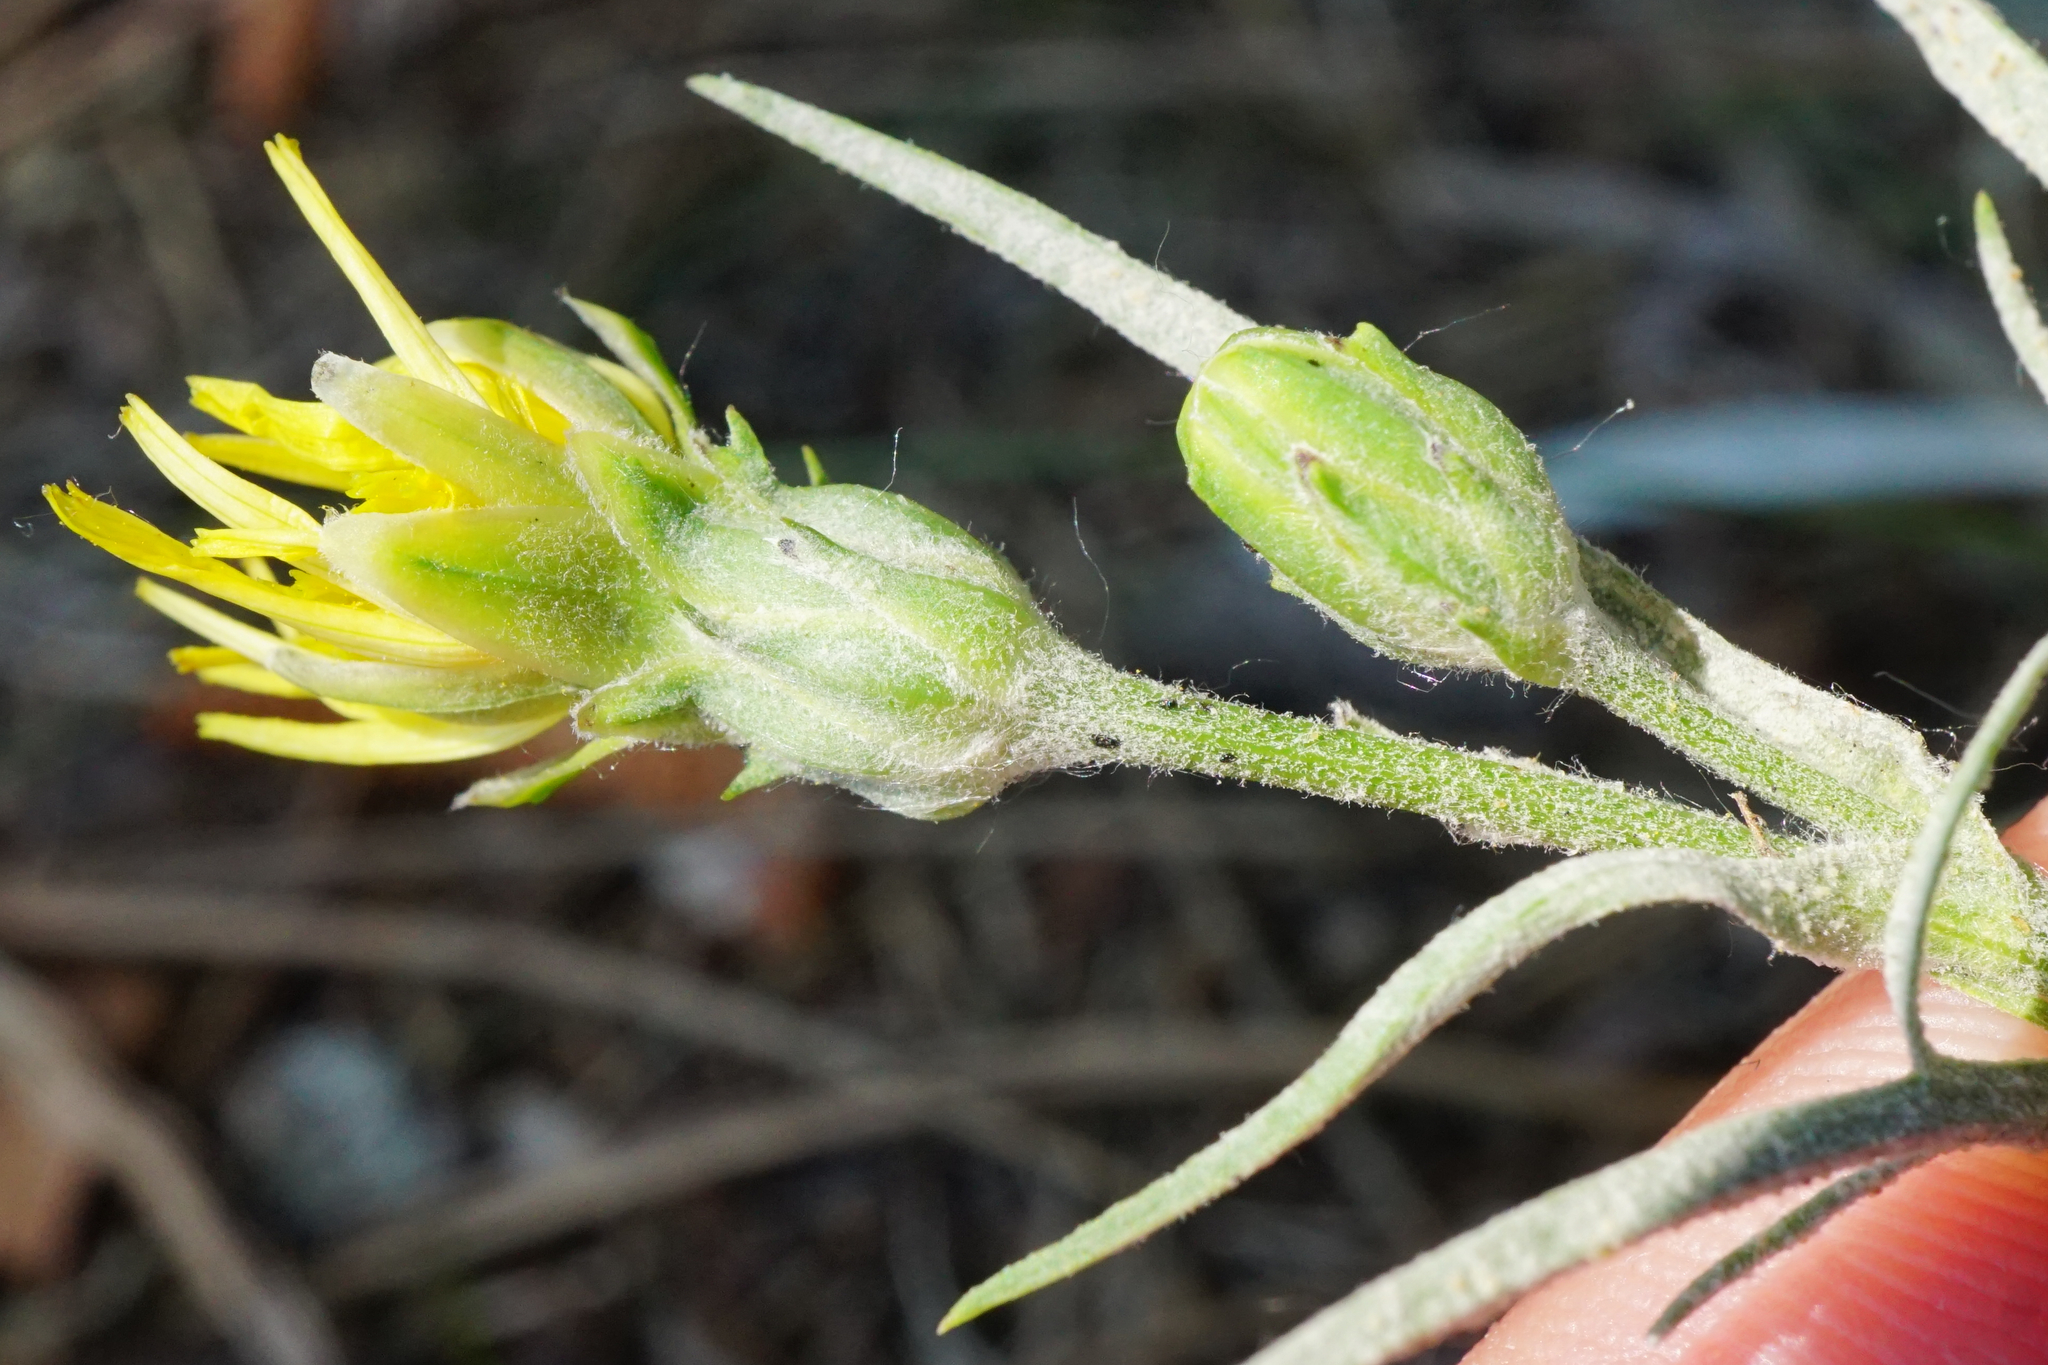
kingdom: Plantae
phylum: Tracheophyta
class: Magnoliopsida
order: Asterales
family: Asteraceae
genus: Scorzonera
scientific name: Scorzonera cana
